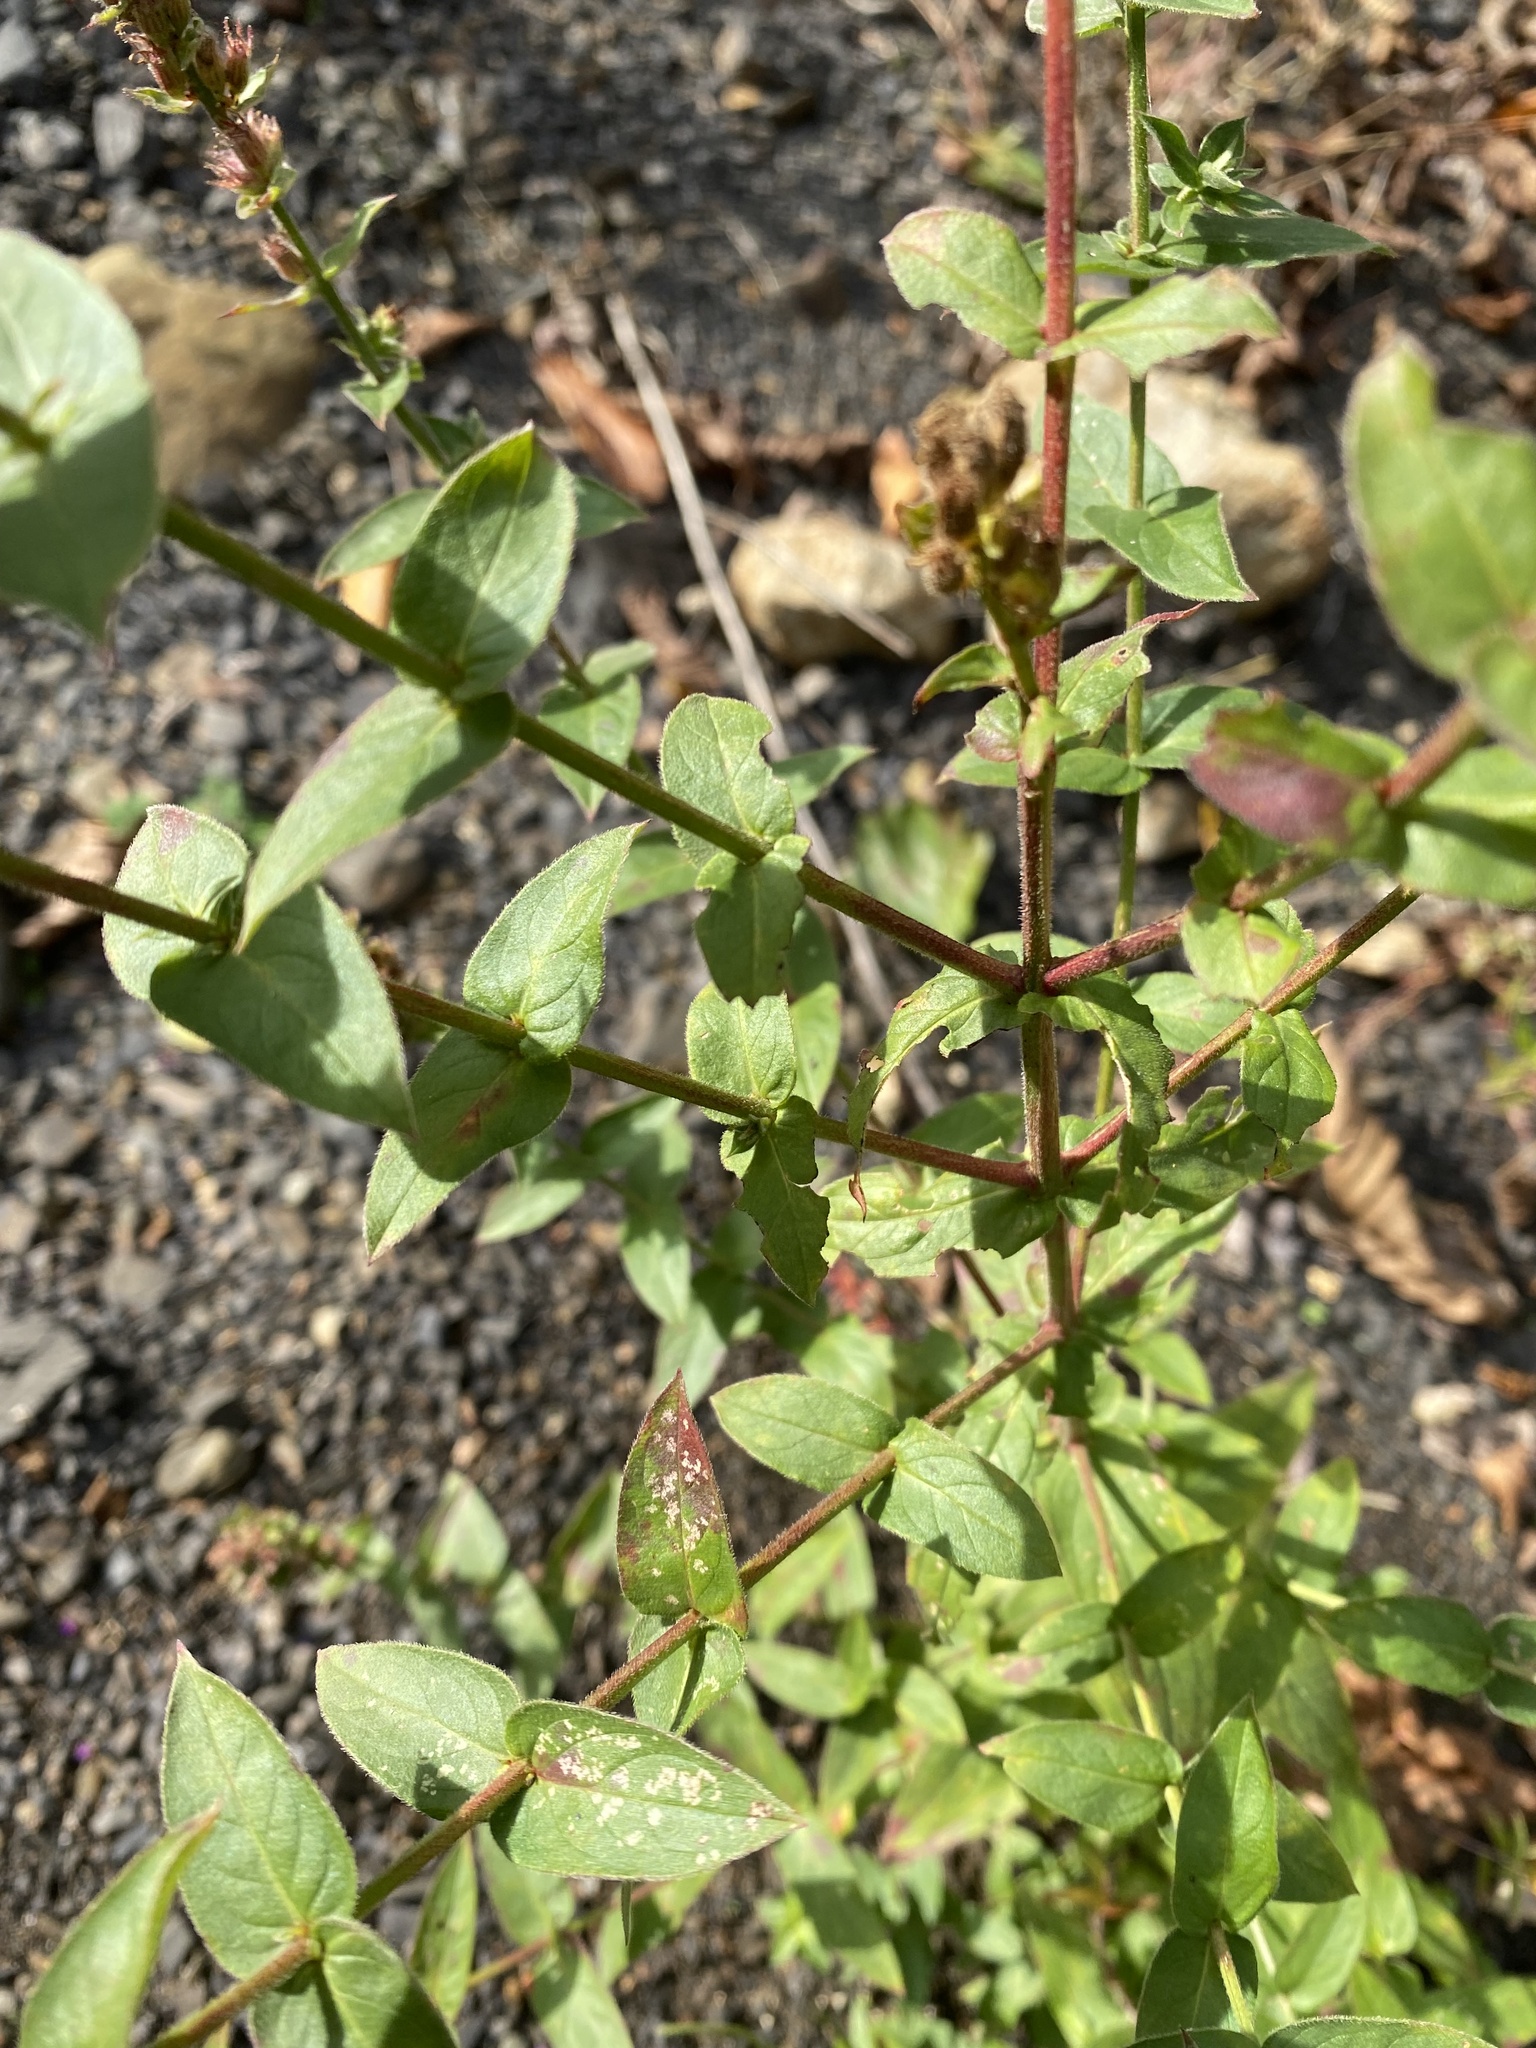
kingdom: Plantae
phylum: Tracheophyta
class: Magnoliopsida
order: Myrtales
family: Lythraceae
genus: Lythrum
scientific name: Lythrum salicaria
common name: Purple loosestrife
